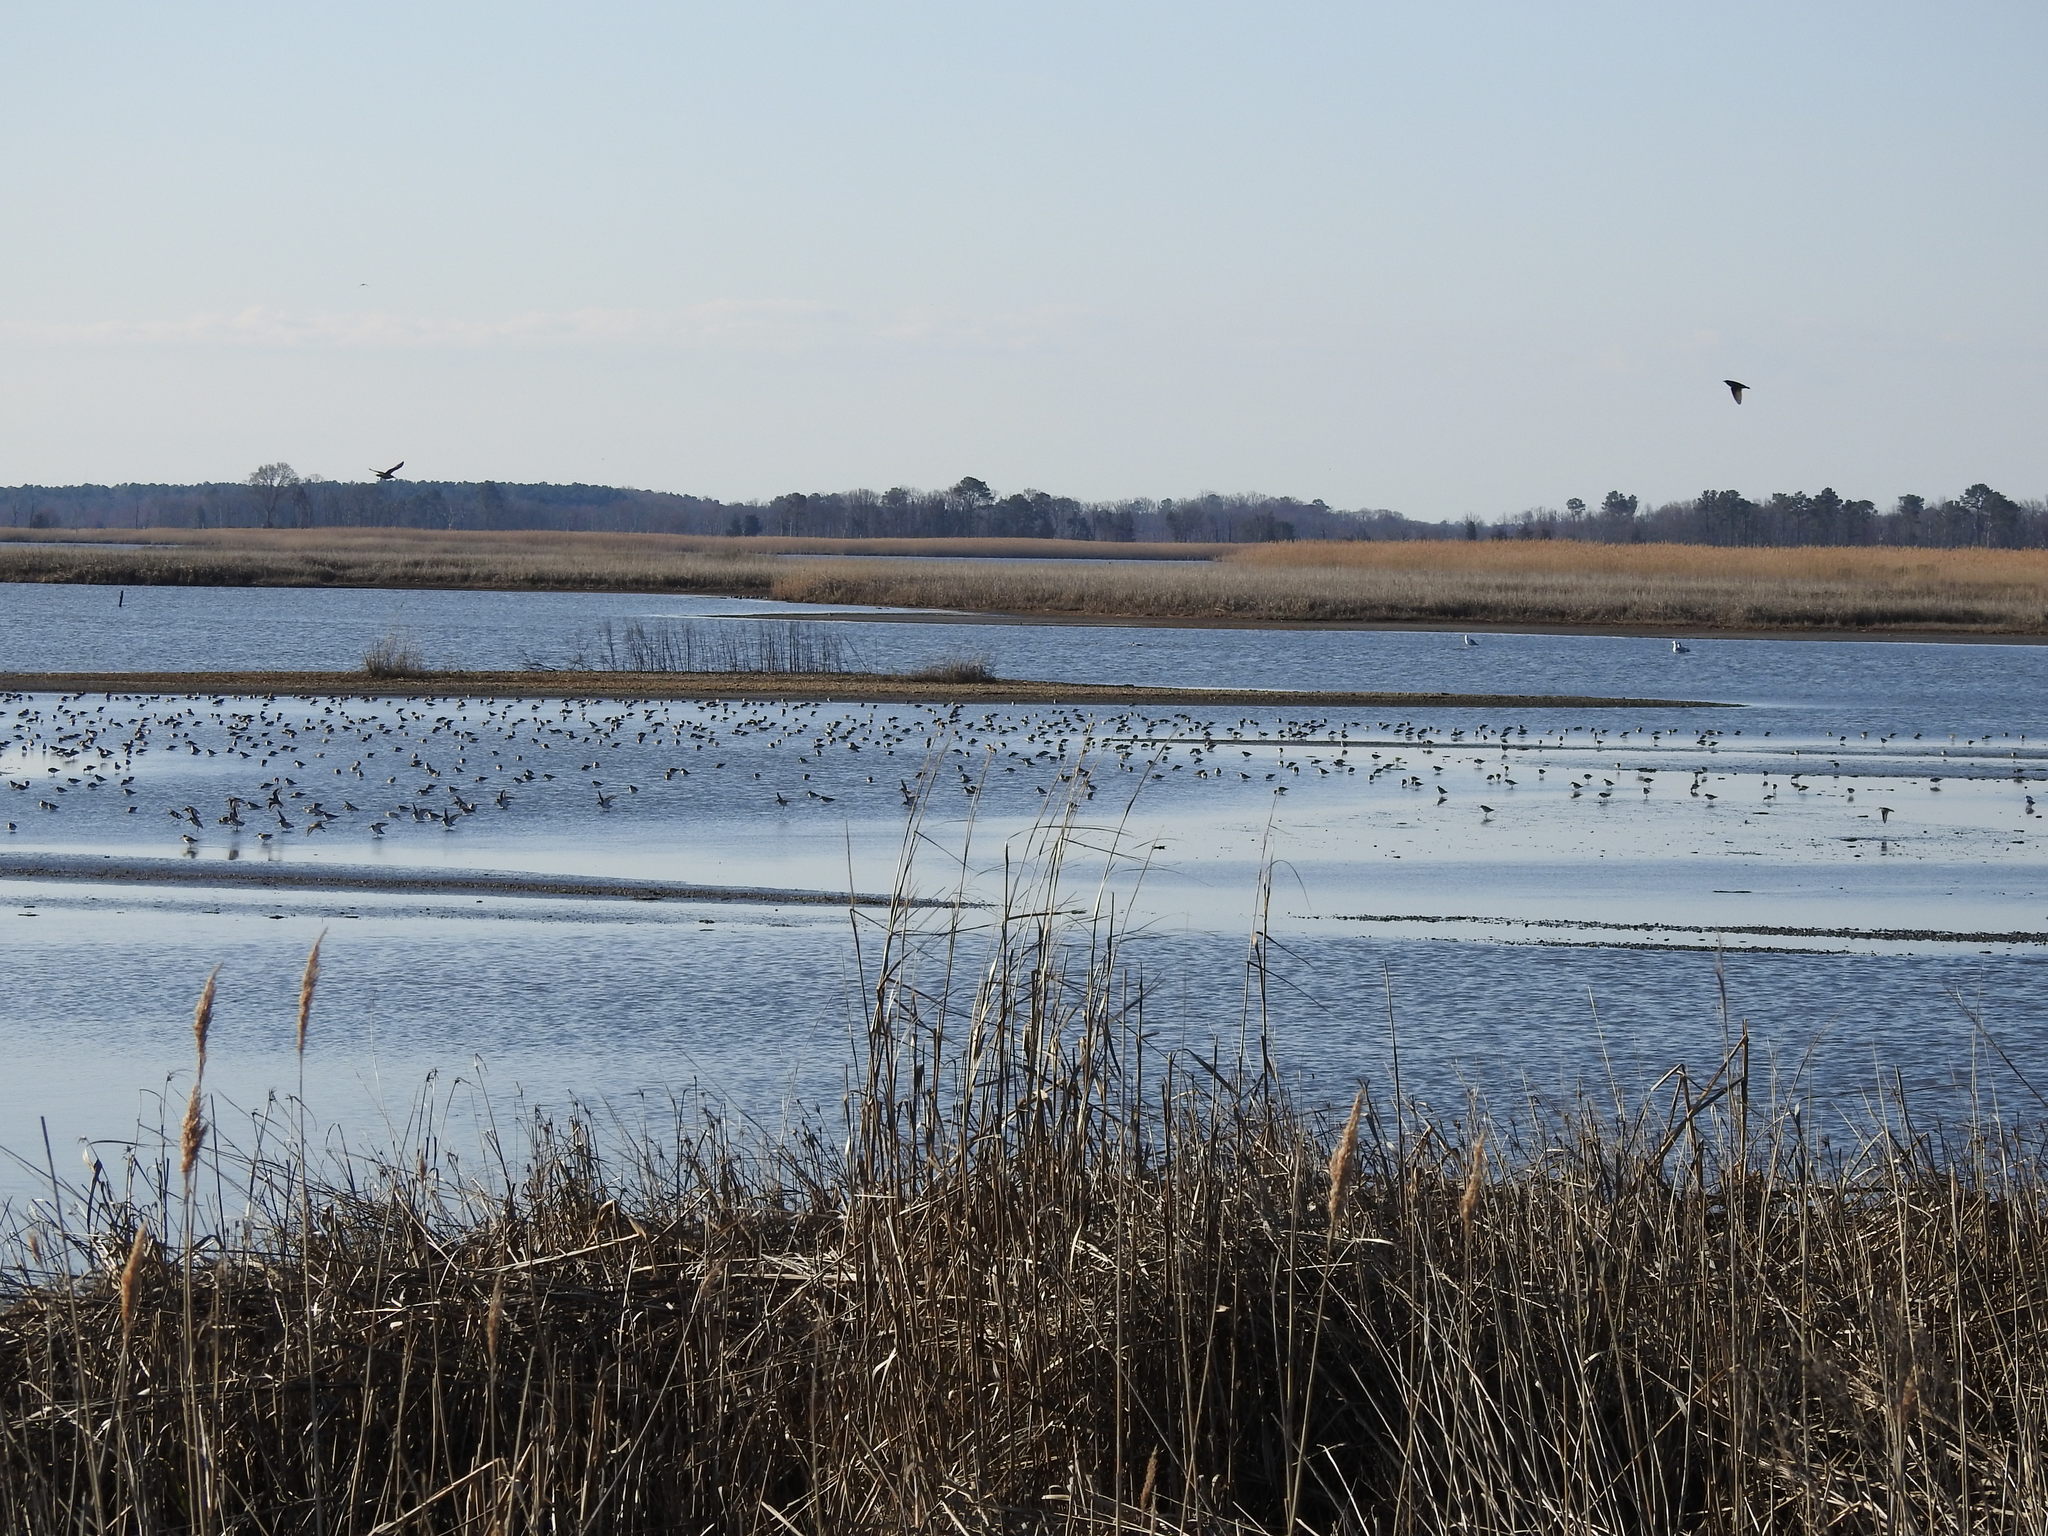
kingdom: Animalia
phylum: Chordata
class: Aves
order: Charadriiformes
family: Scolopacidae
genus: Calidris
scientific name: Calidris alpina
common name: Dunlin
